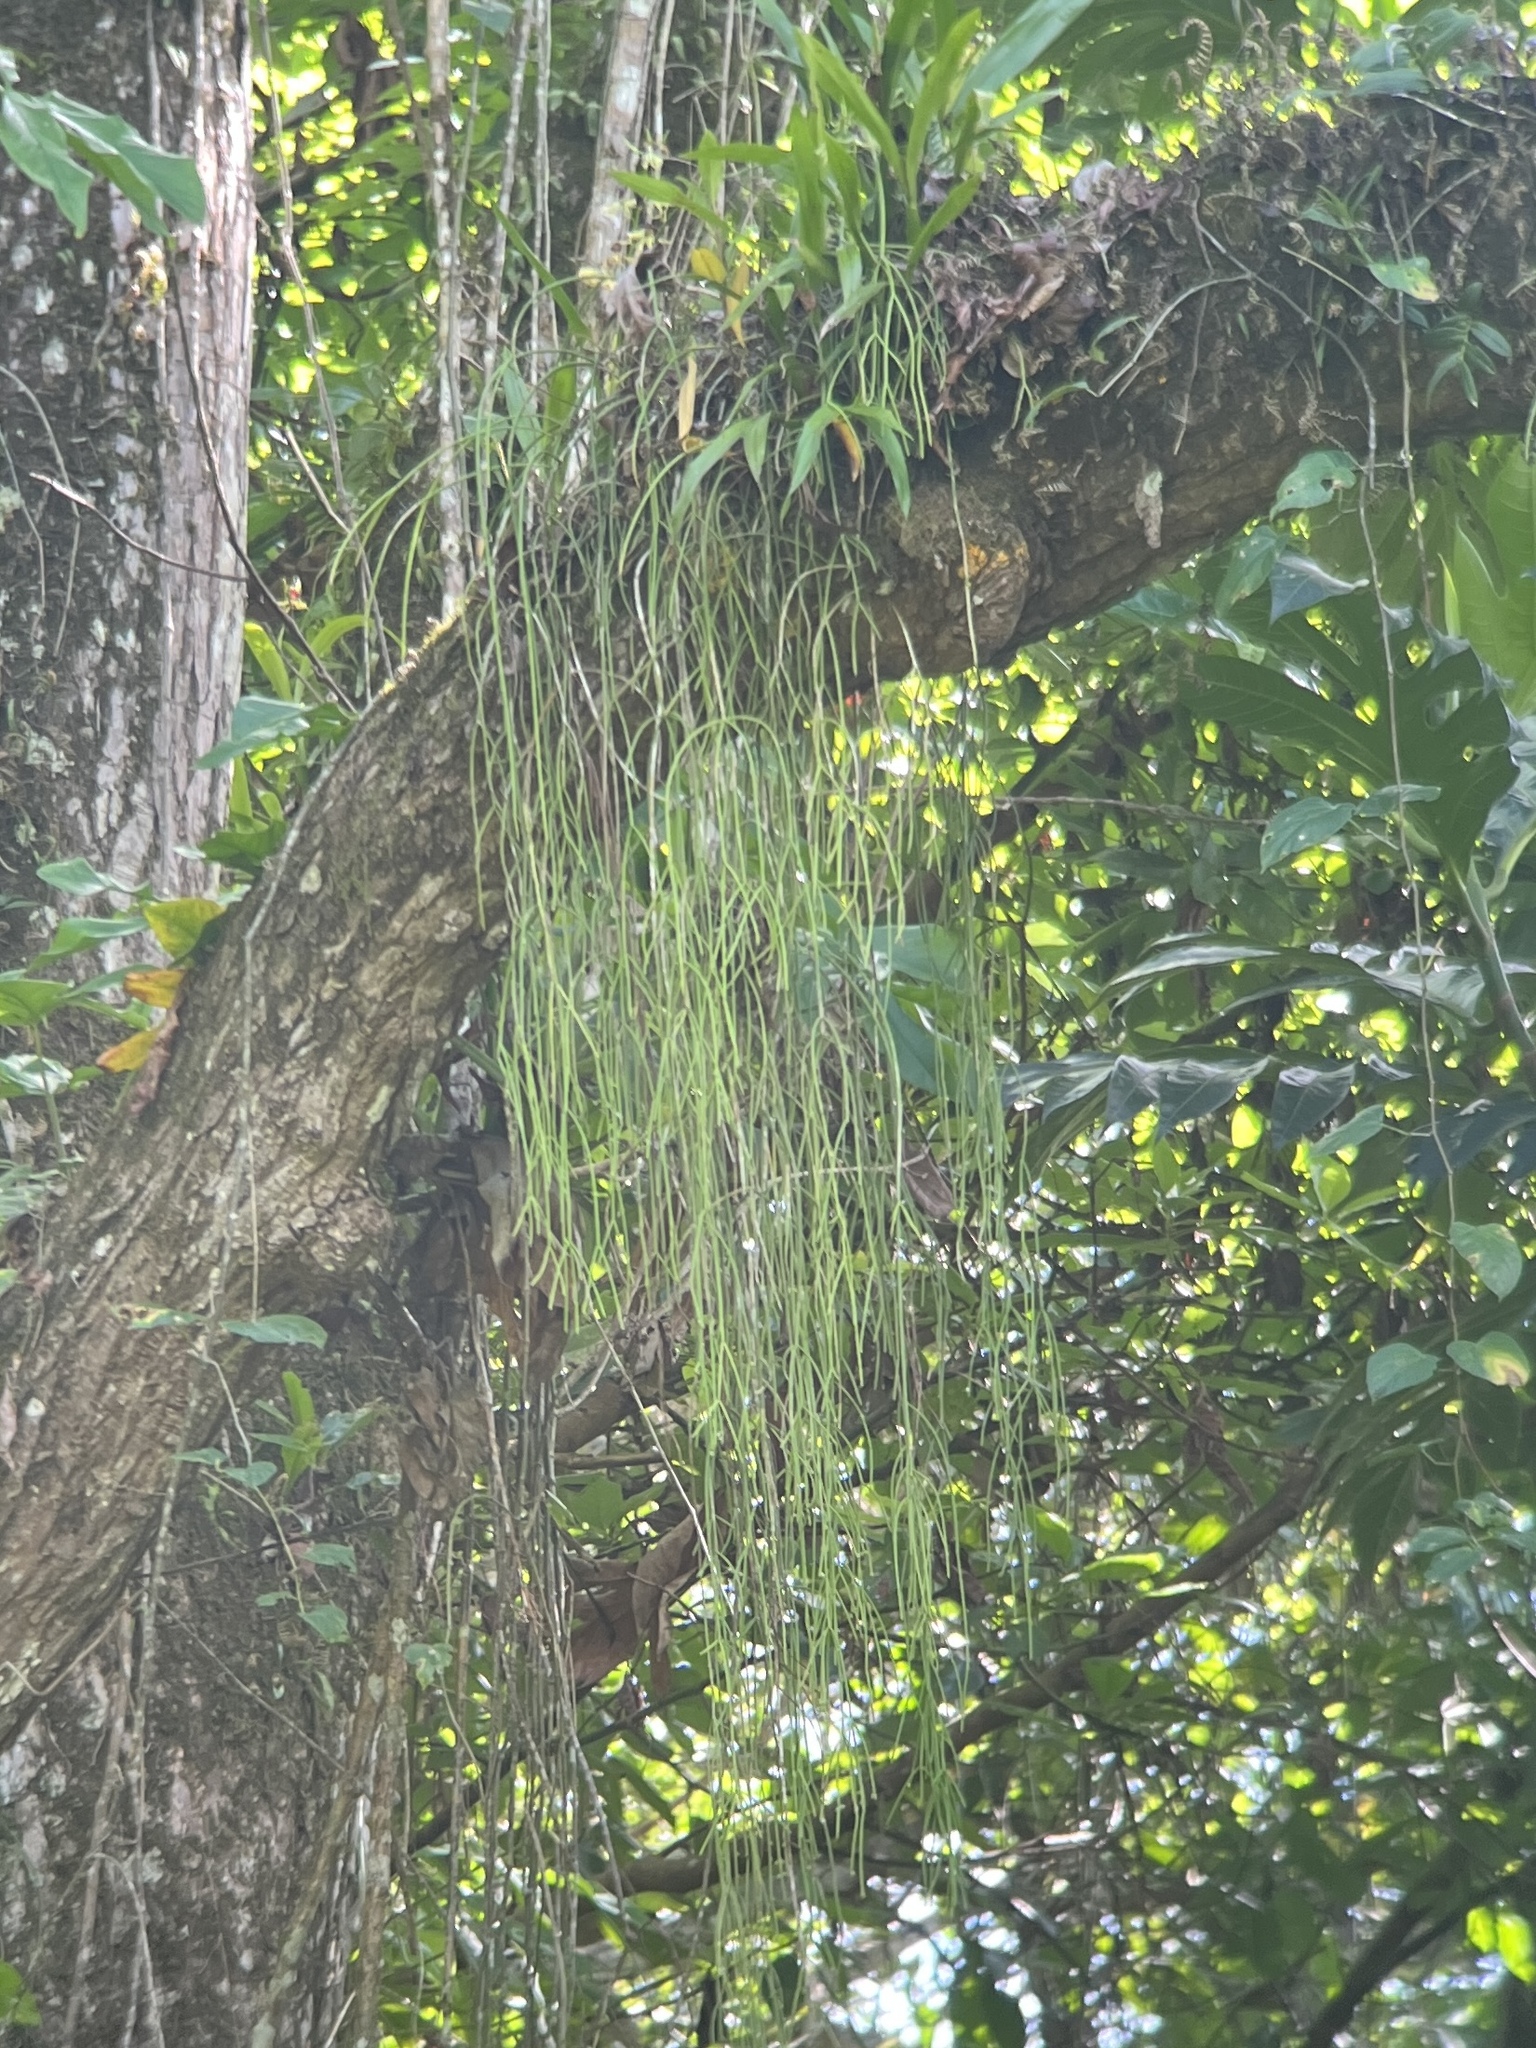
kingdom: Plantae
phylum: Tracheophyta
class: Magnoliopsida
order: Caryophyllales
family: Cactaceae
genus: Rhipsalis
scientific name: Rhipsalis baccifera
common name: Mistletoe cactus
